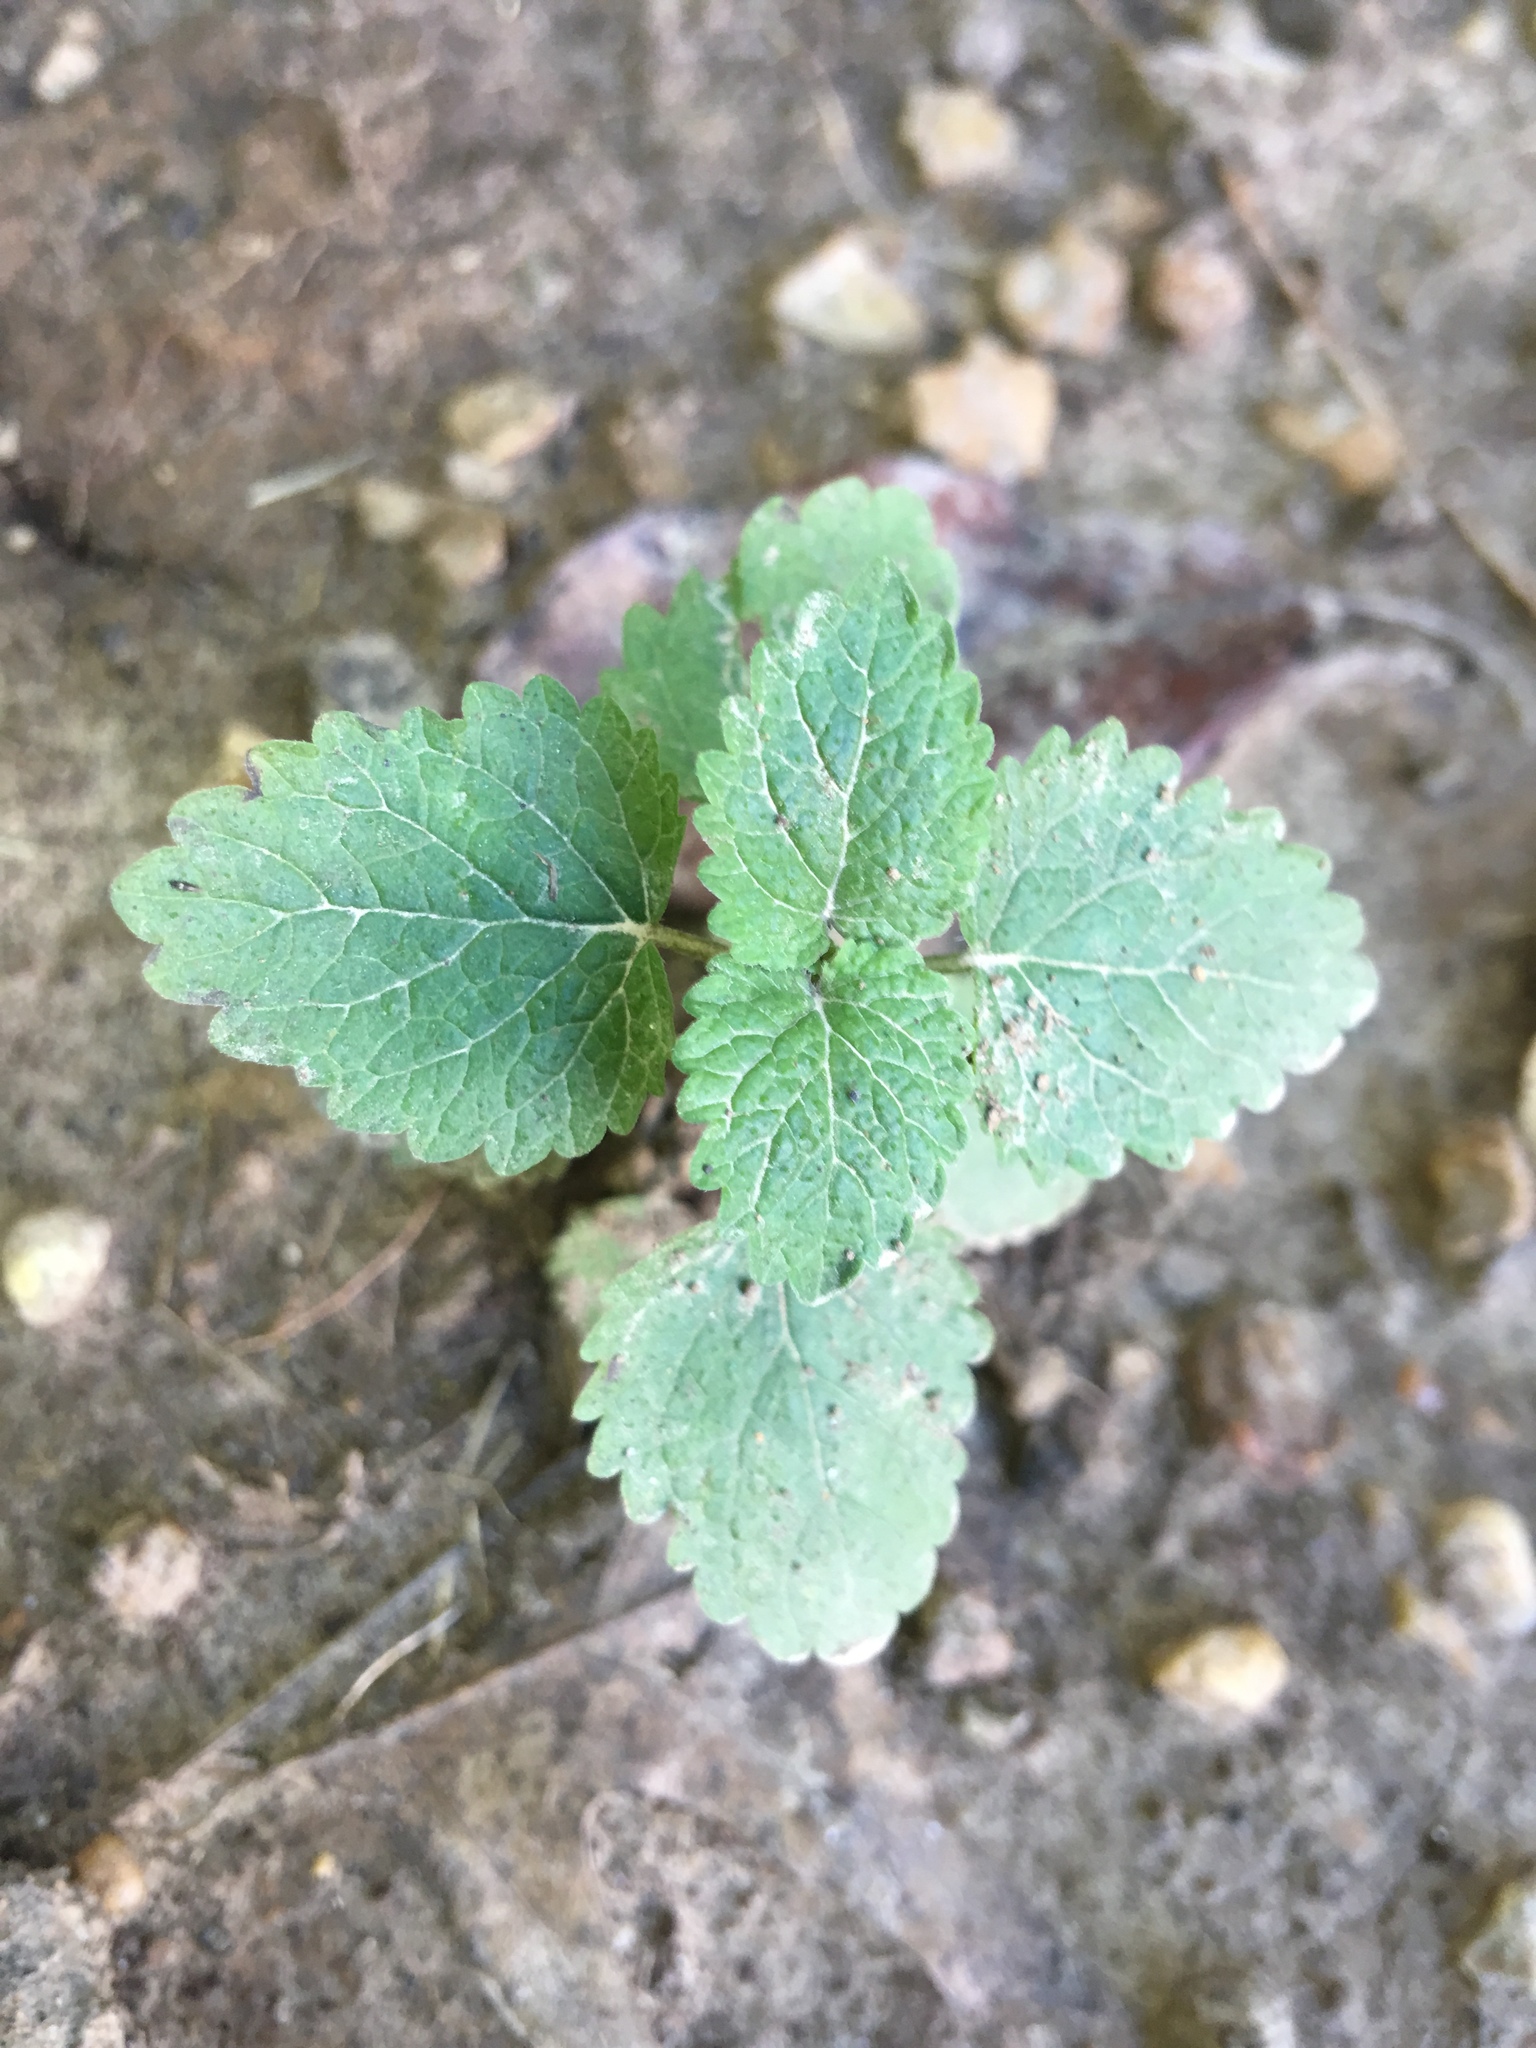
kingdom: Plantae
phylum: Tracheophyta
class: Magnoliopsida
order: Lamiales
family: Lamiaceae
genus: Melissa
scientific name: Melissa officinalis
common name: Balm
